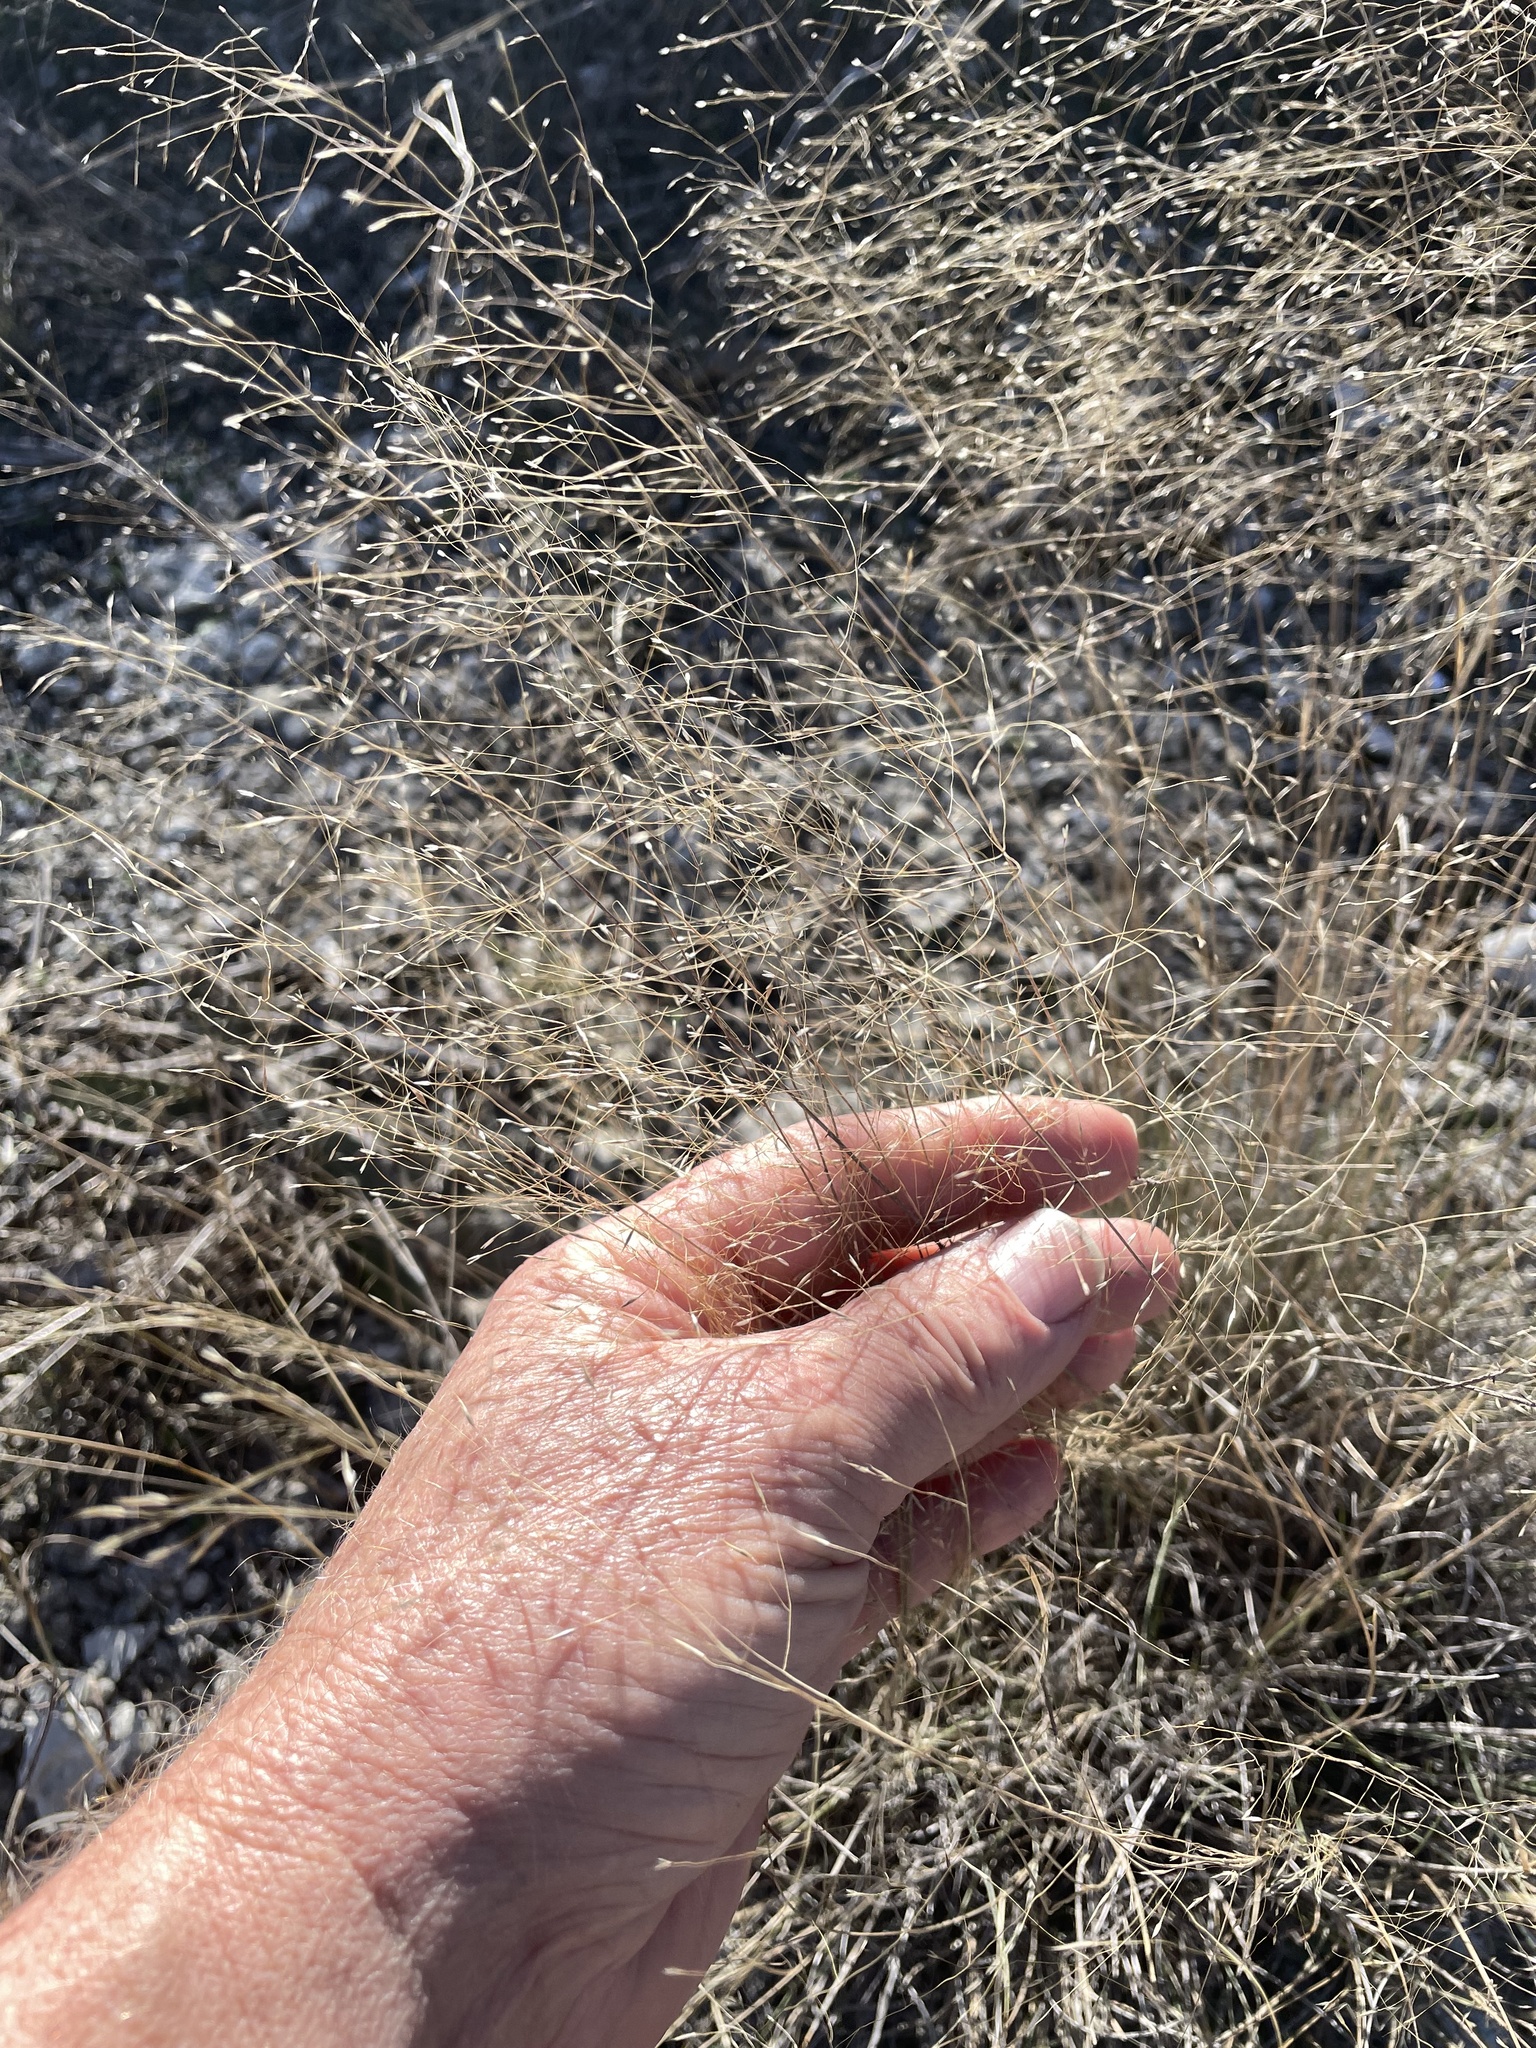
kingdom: Plantae
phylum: Tracheophyta
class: Liliopsida
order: Poales
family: Poaceae
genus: Muhlenbergia
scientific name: Muhlenbergia reverchonii
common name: Seep muhly
